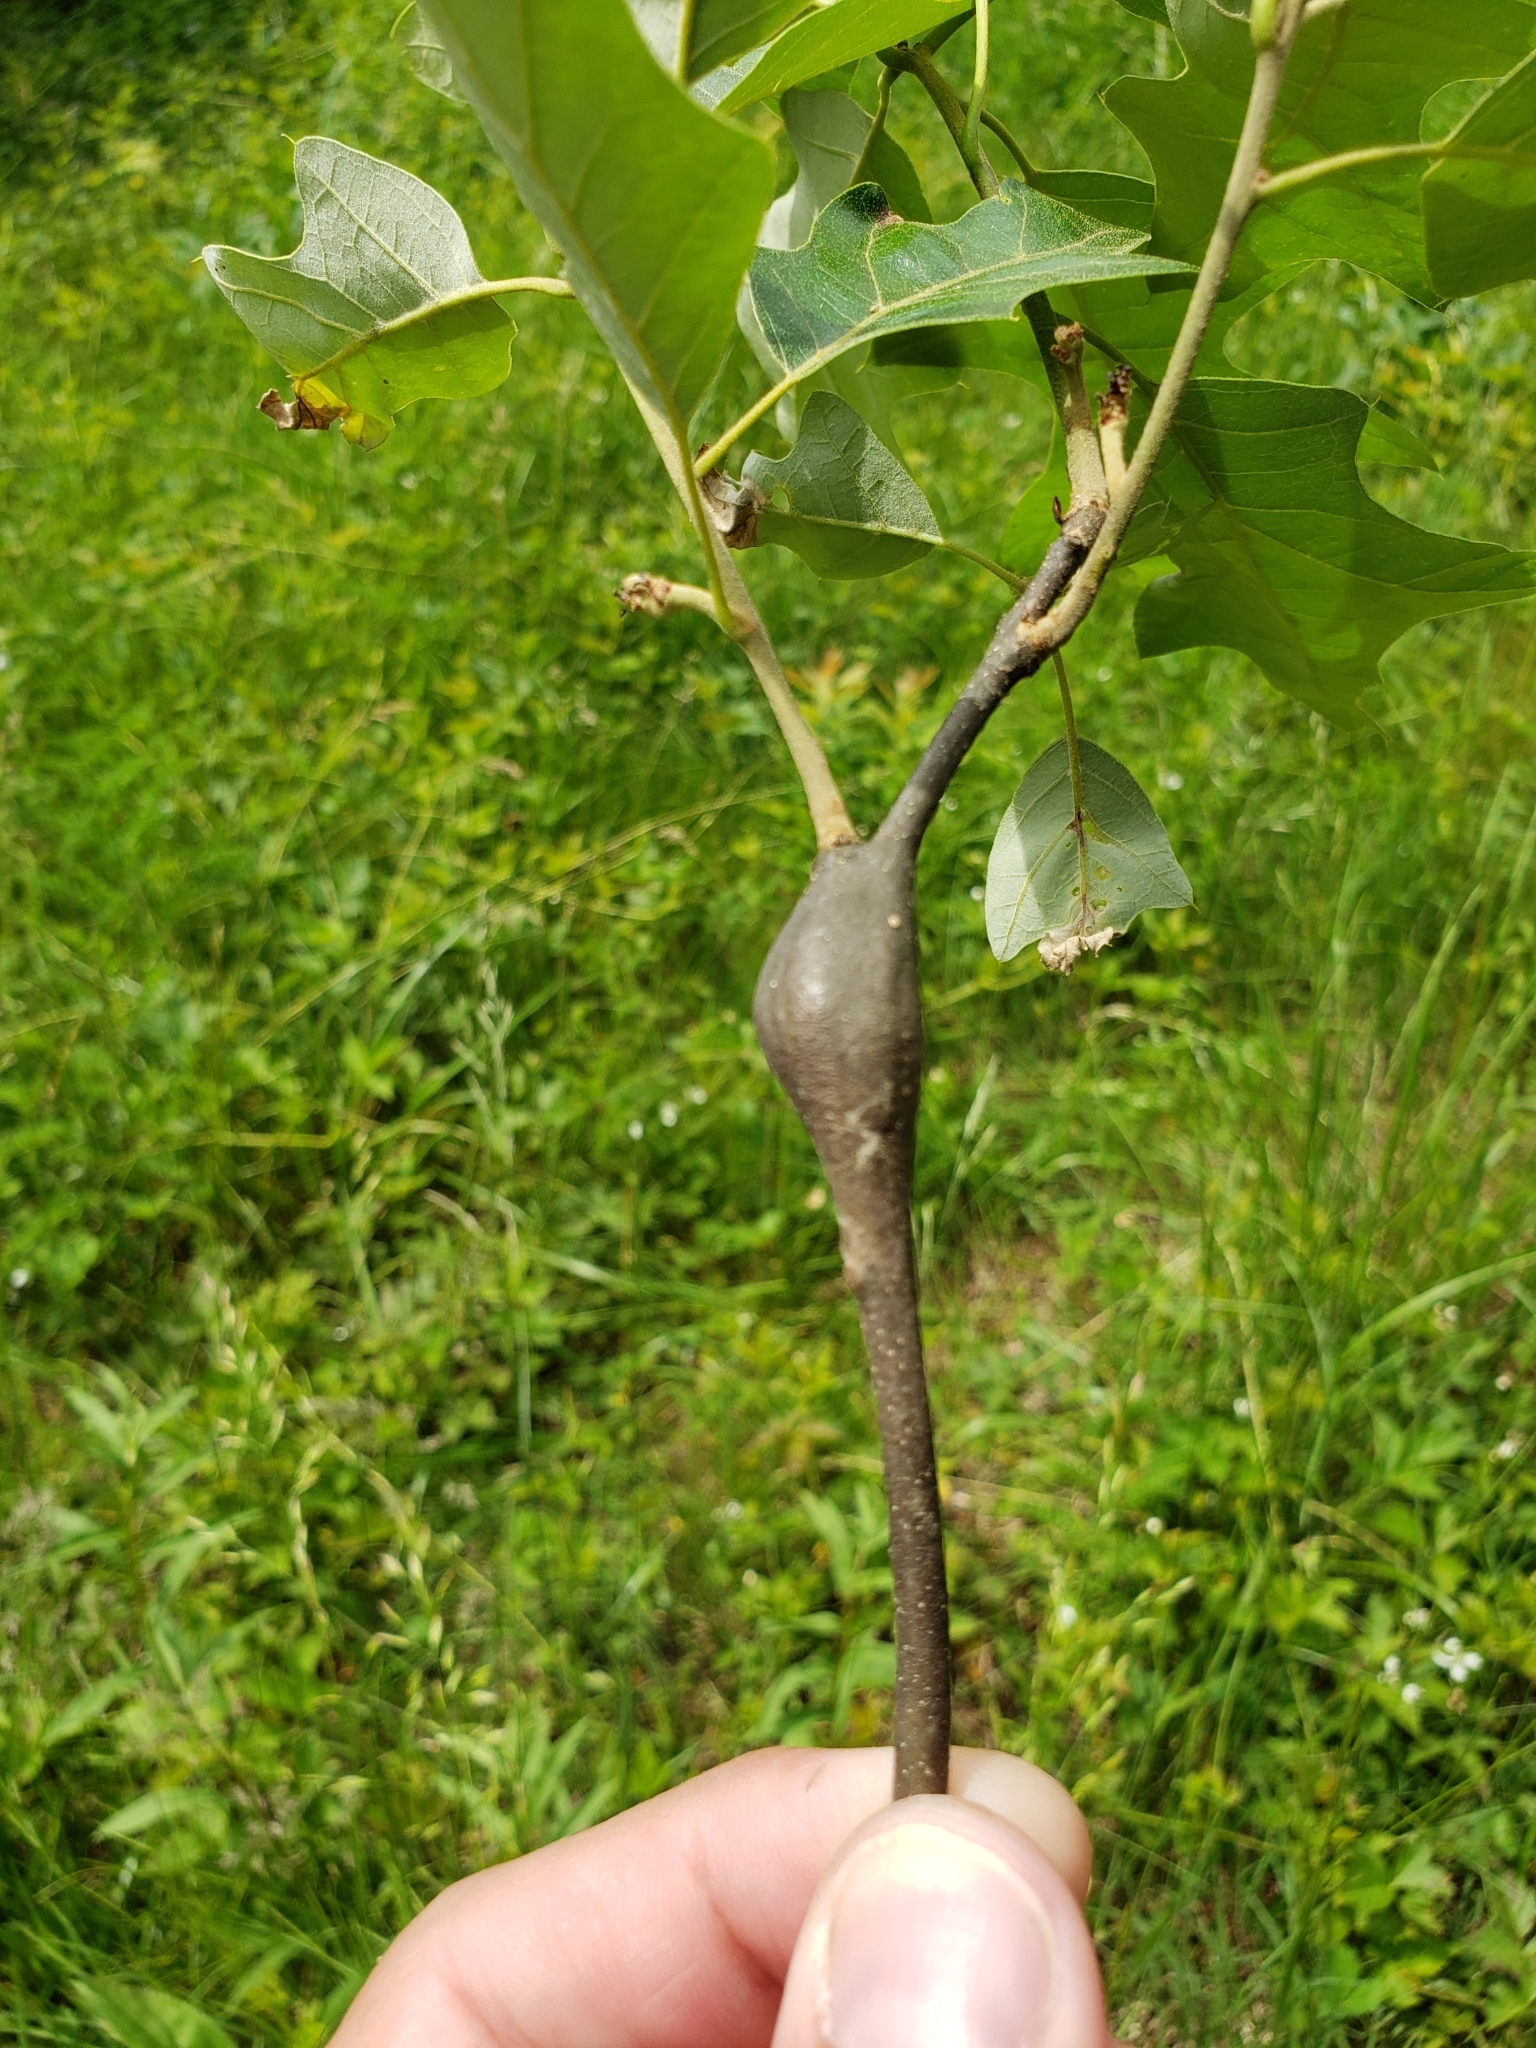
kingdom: Animalia
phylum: Arthropoda
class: Insecta
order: Hymenoptera
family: Cynipidae
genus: Zapatella
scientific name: Zapatella quercusphellos
